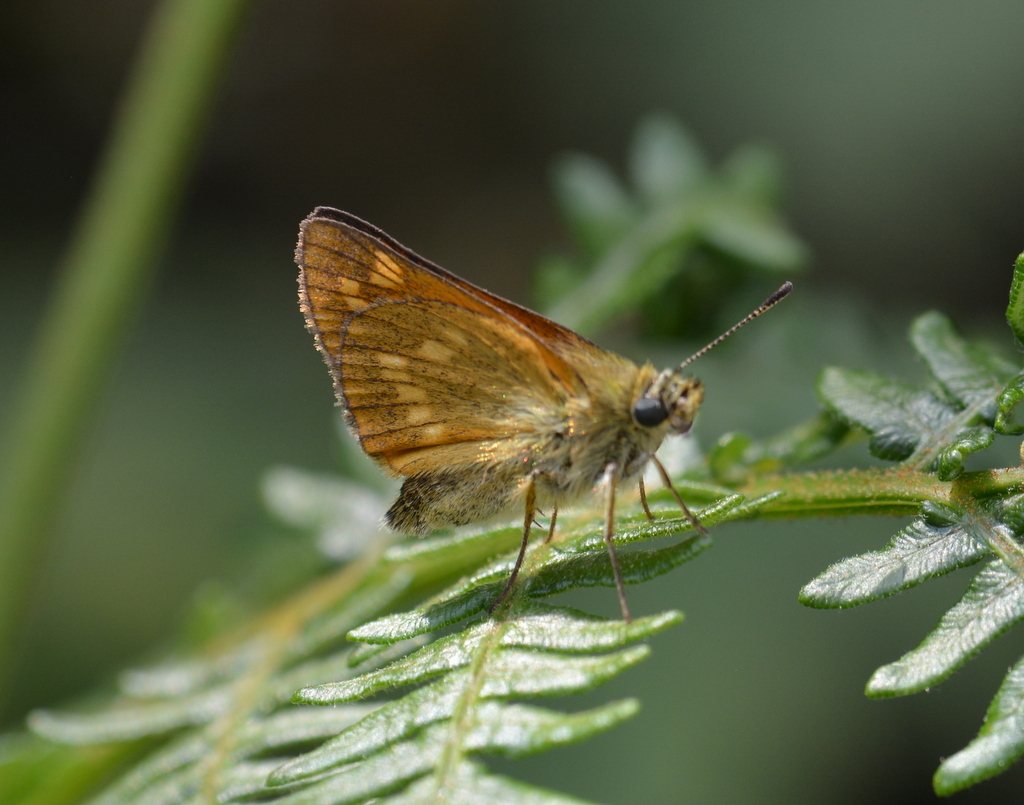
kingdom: Animalia
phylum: Arthropoda
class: Insecta
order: Lepidoptera
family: Hesperiidae
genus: Ochlodes
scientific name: Ochlodes venata
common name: Large skipper
